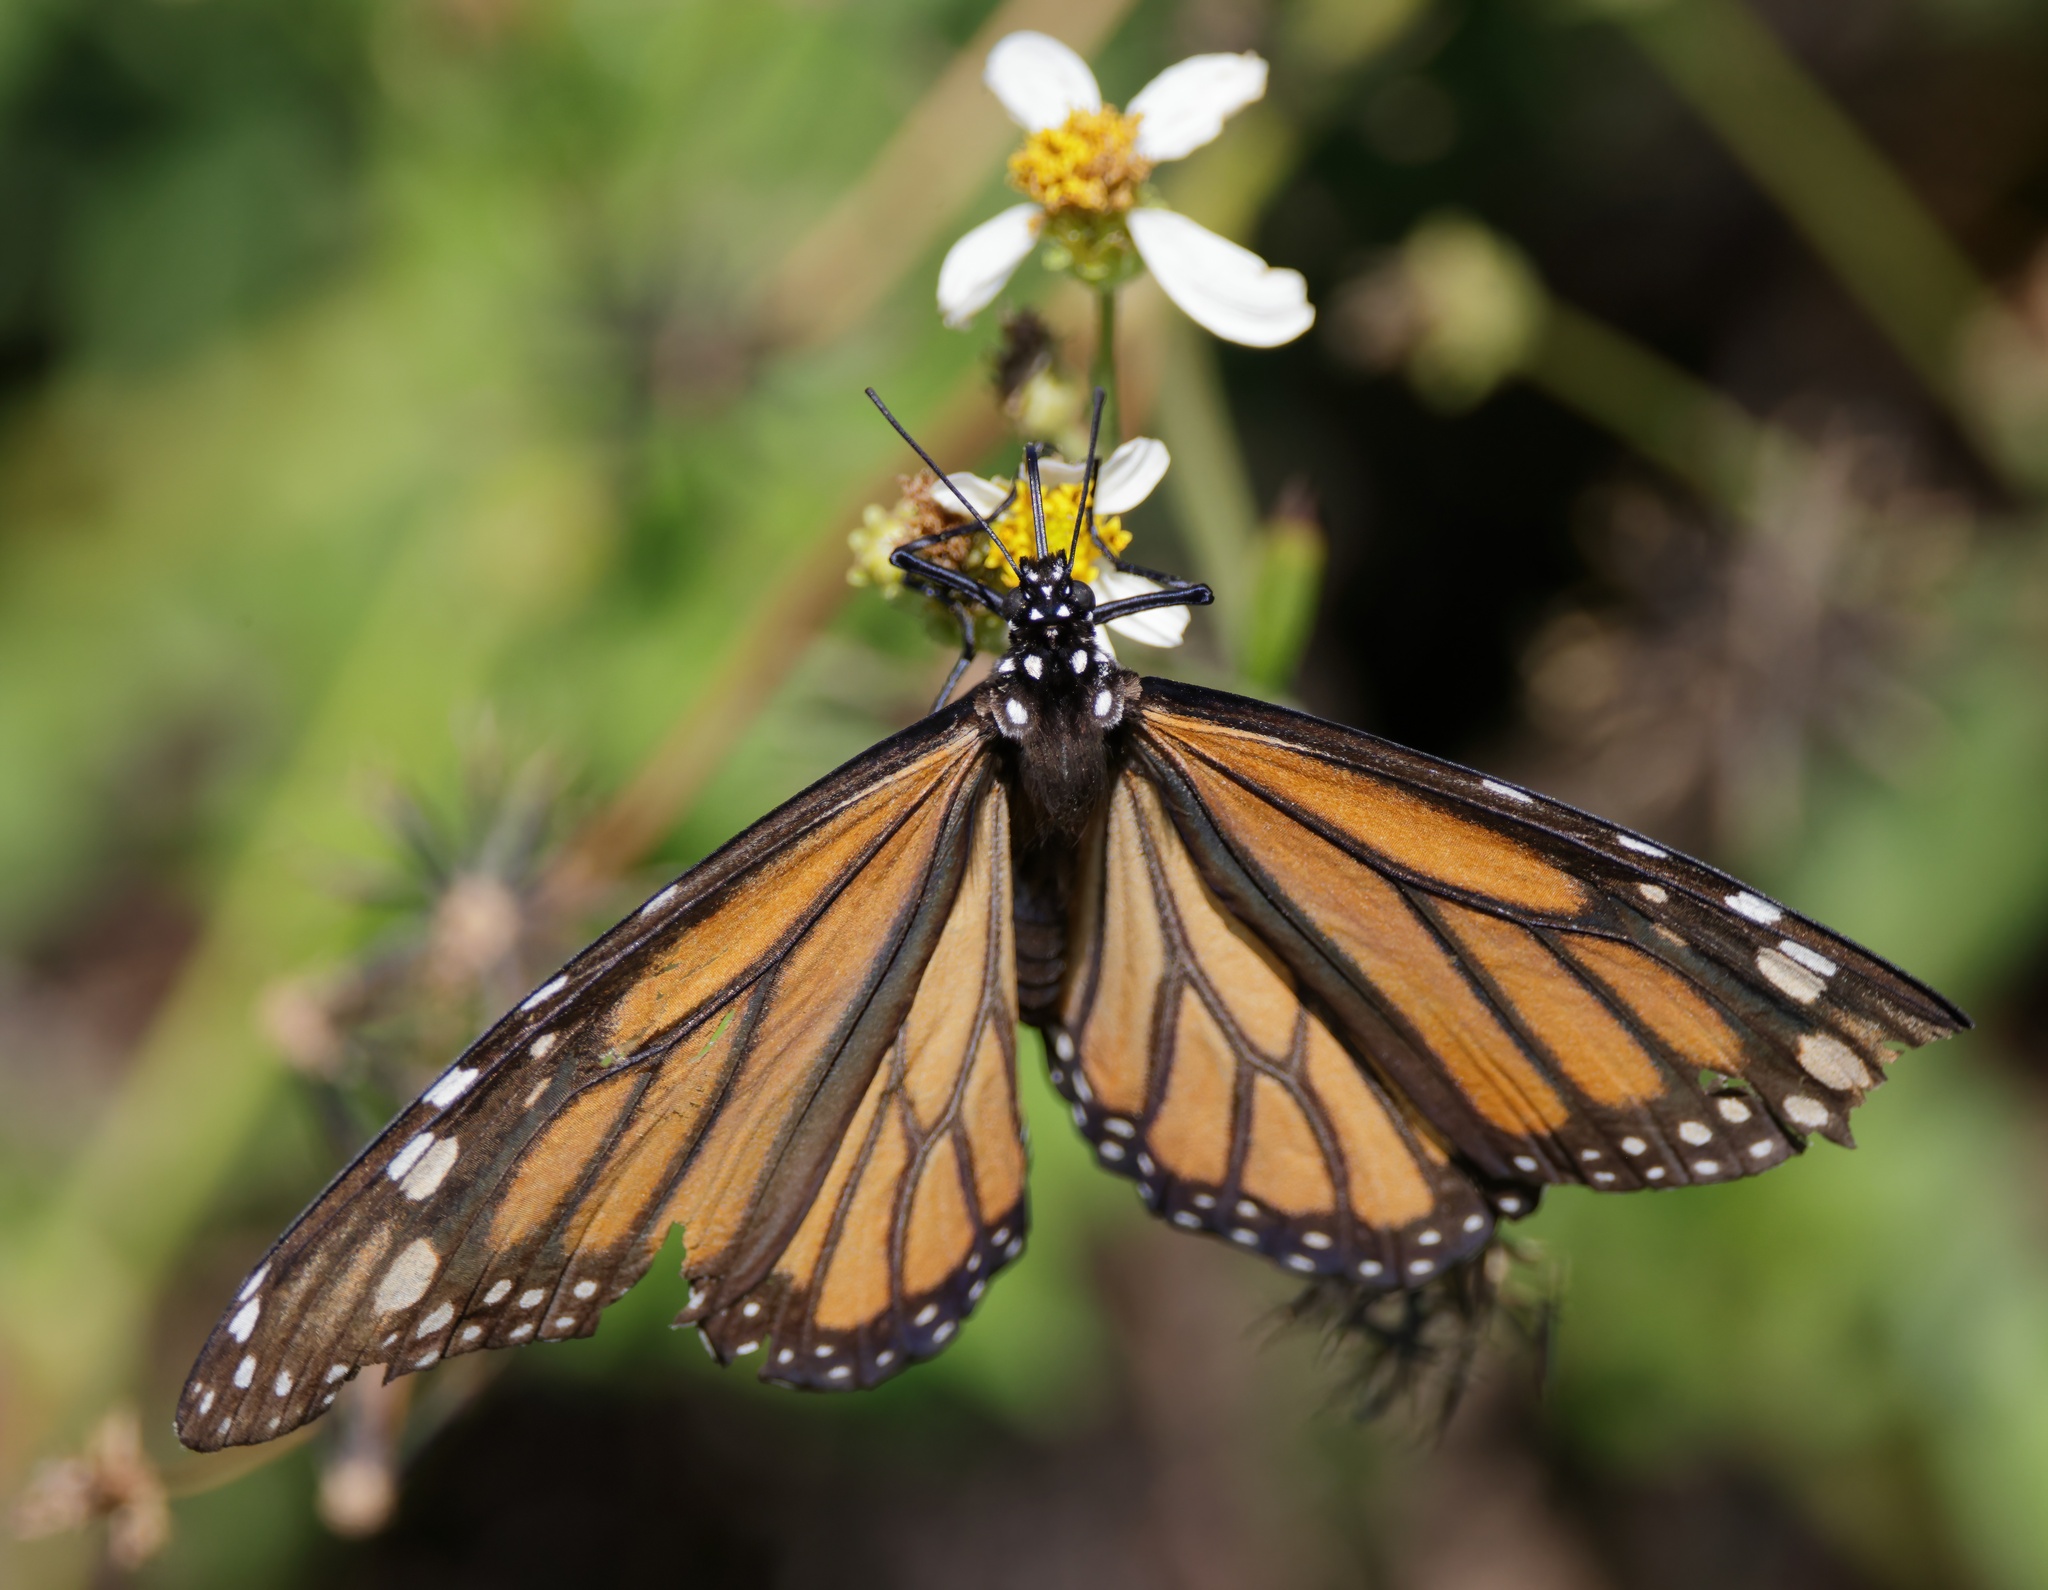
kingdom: Animalia
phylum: Arthropoda
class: Insecta
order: Lepidoptera
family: Nymphalidae
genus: Danaus
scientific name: Danaus plexippus
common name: Monarch
